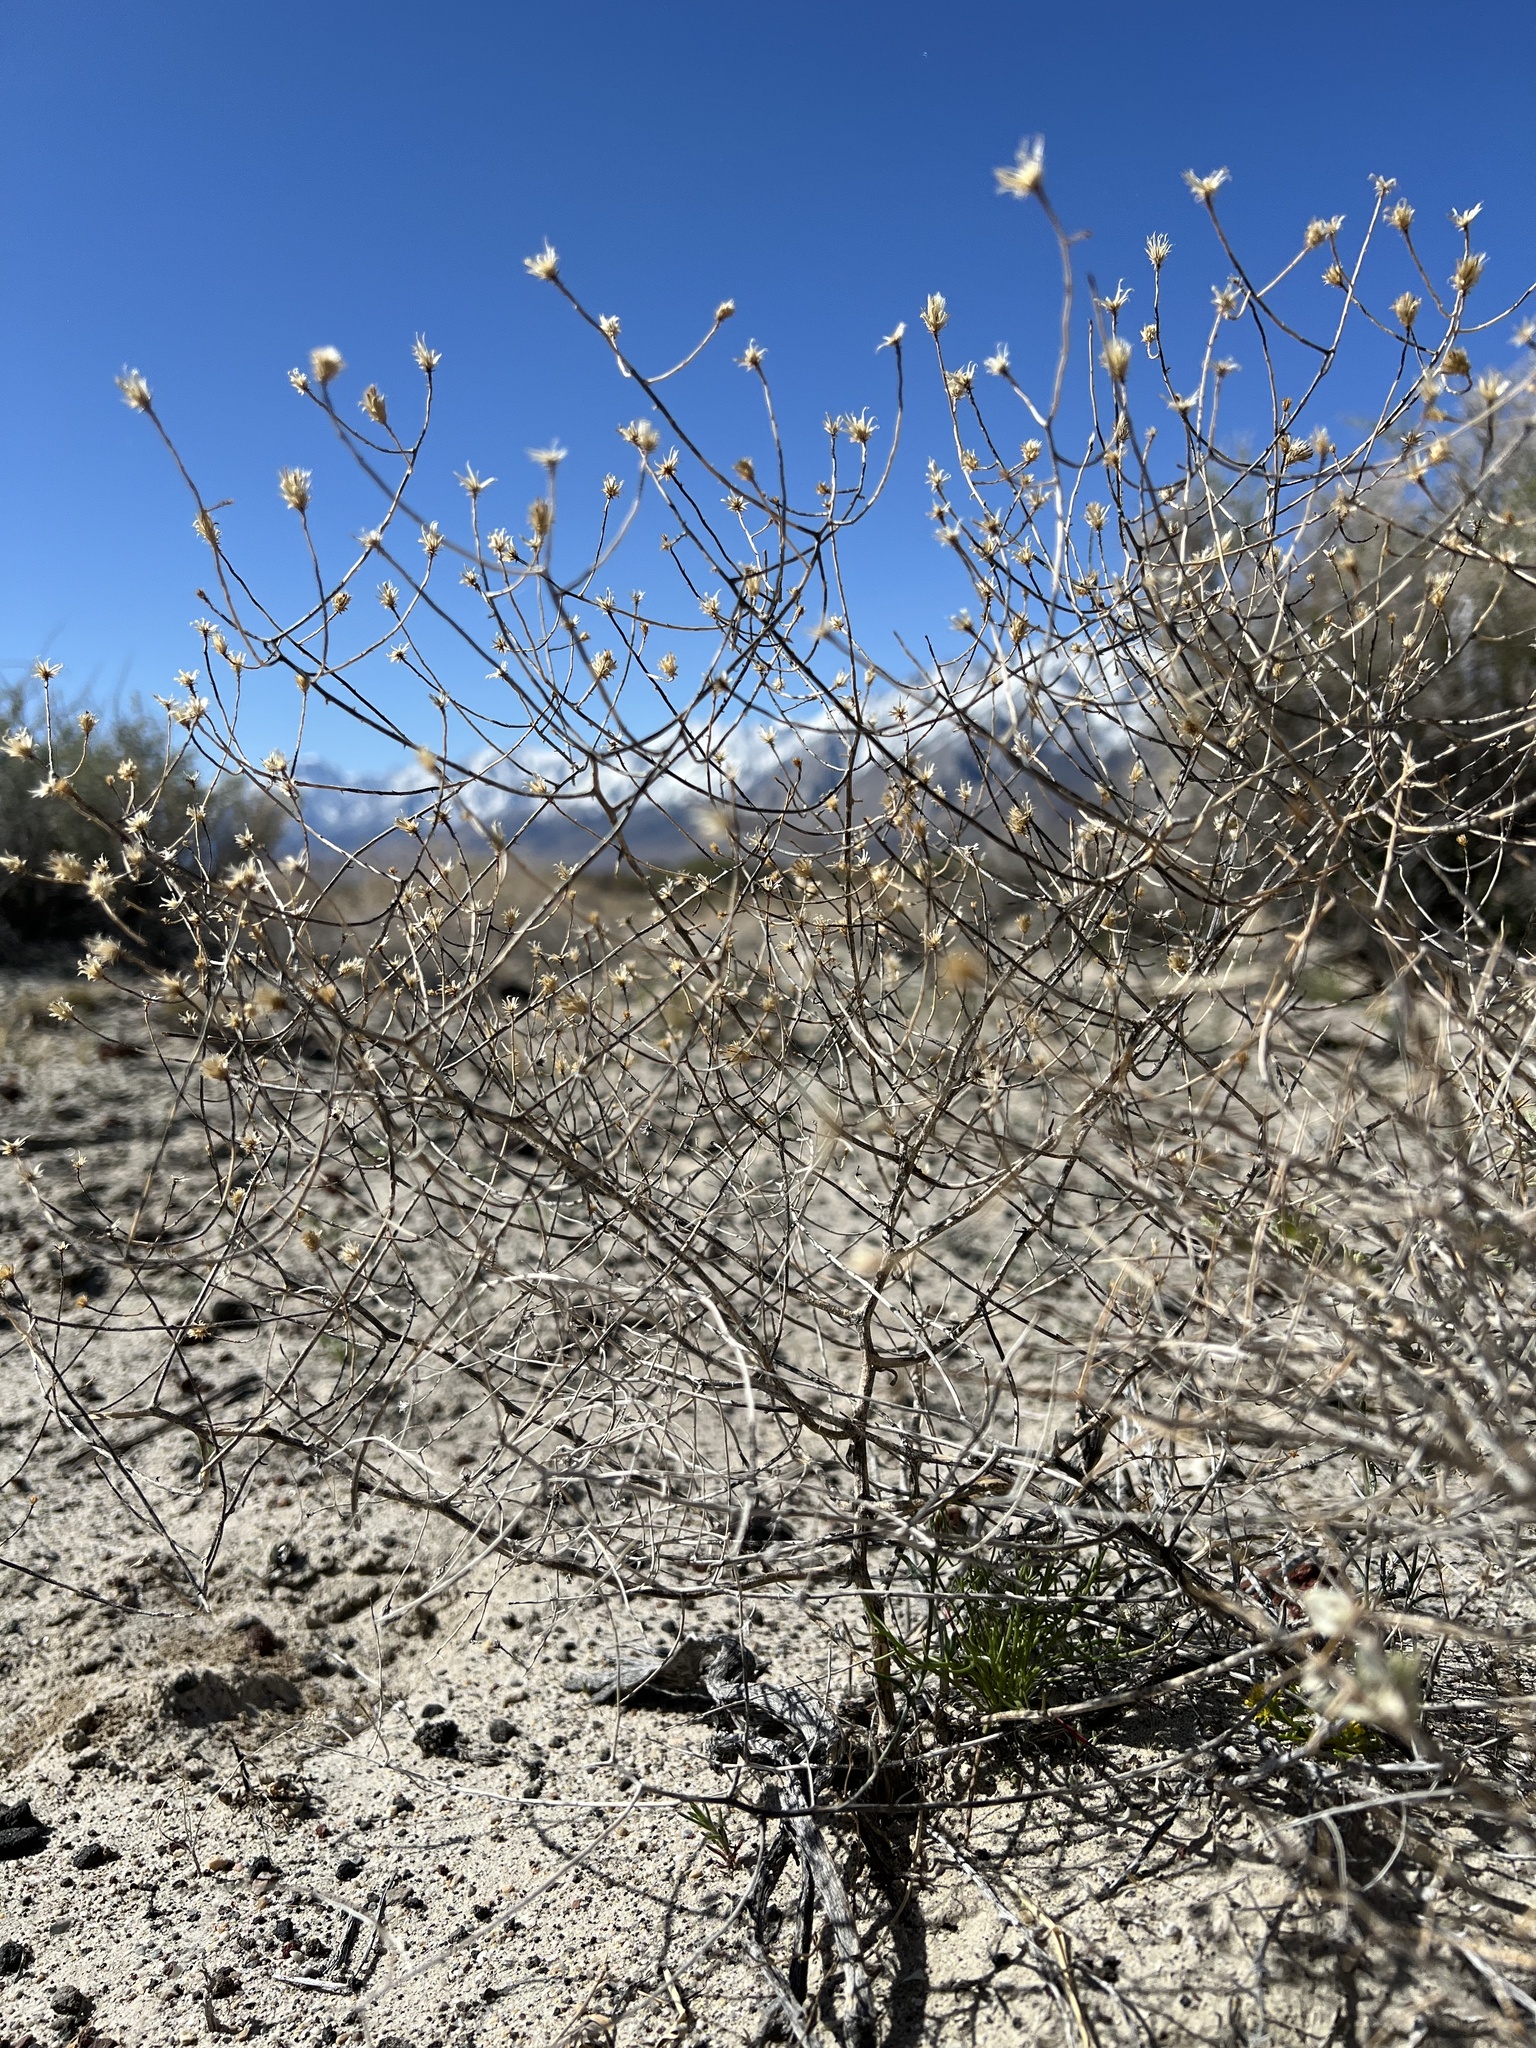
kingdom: Plantae
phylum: Tracheophyta
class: Magnoliopsida
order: Asterales
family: Asteraceae
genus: Leucosyris
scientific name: Leucosyris carnosa
